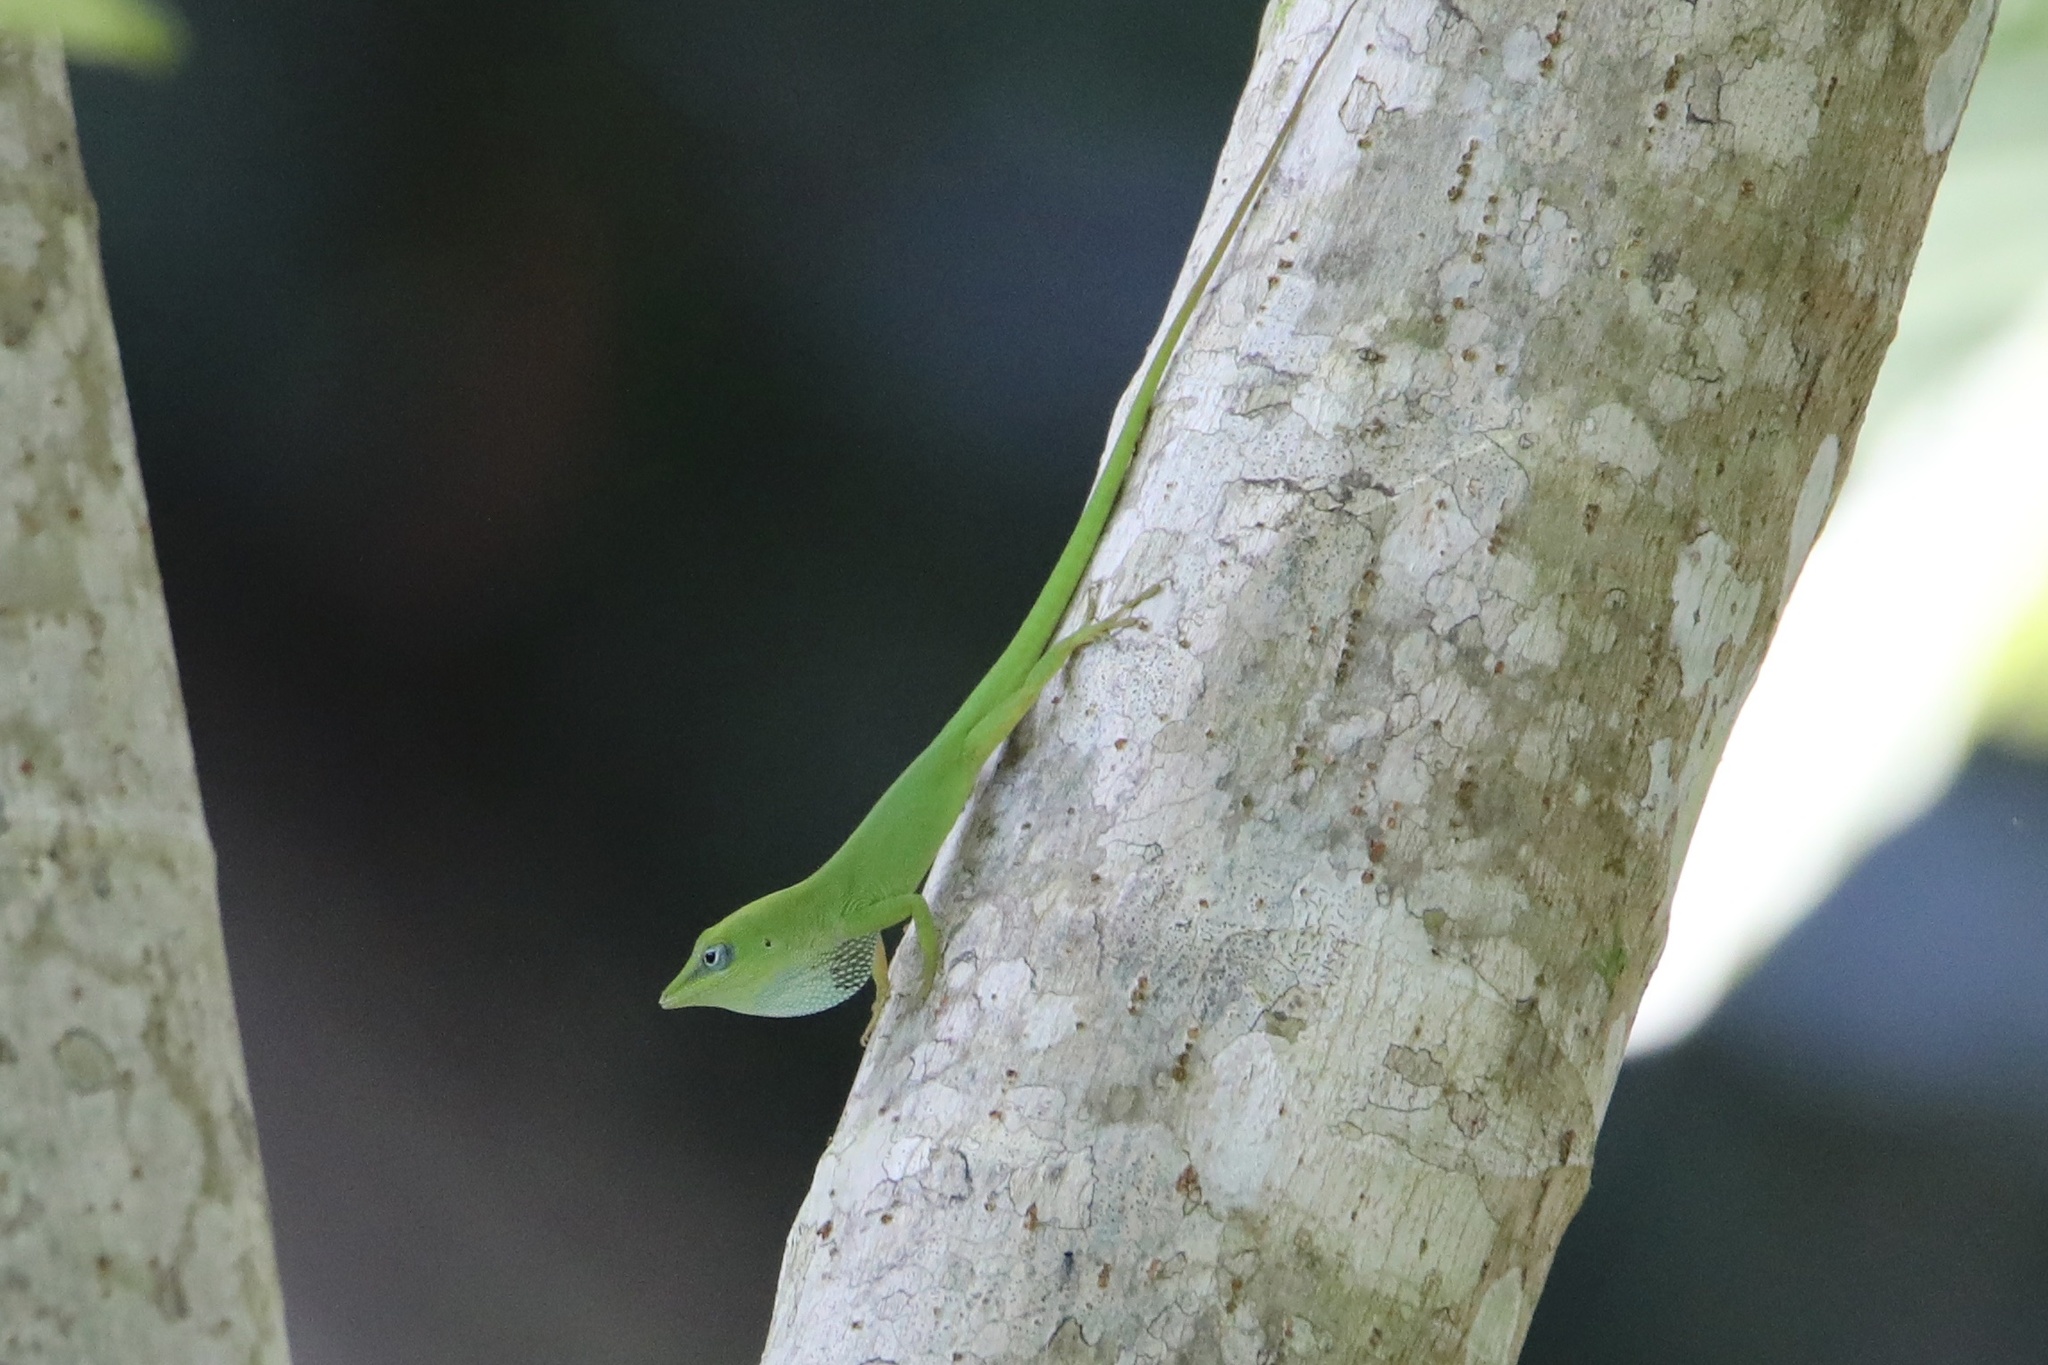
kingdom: Animalia
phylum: Chordata
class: Squamata
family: Dactyloidae
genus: Anolis
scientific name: Anolis callainus
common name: Dominican green anole
